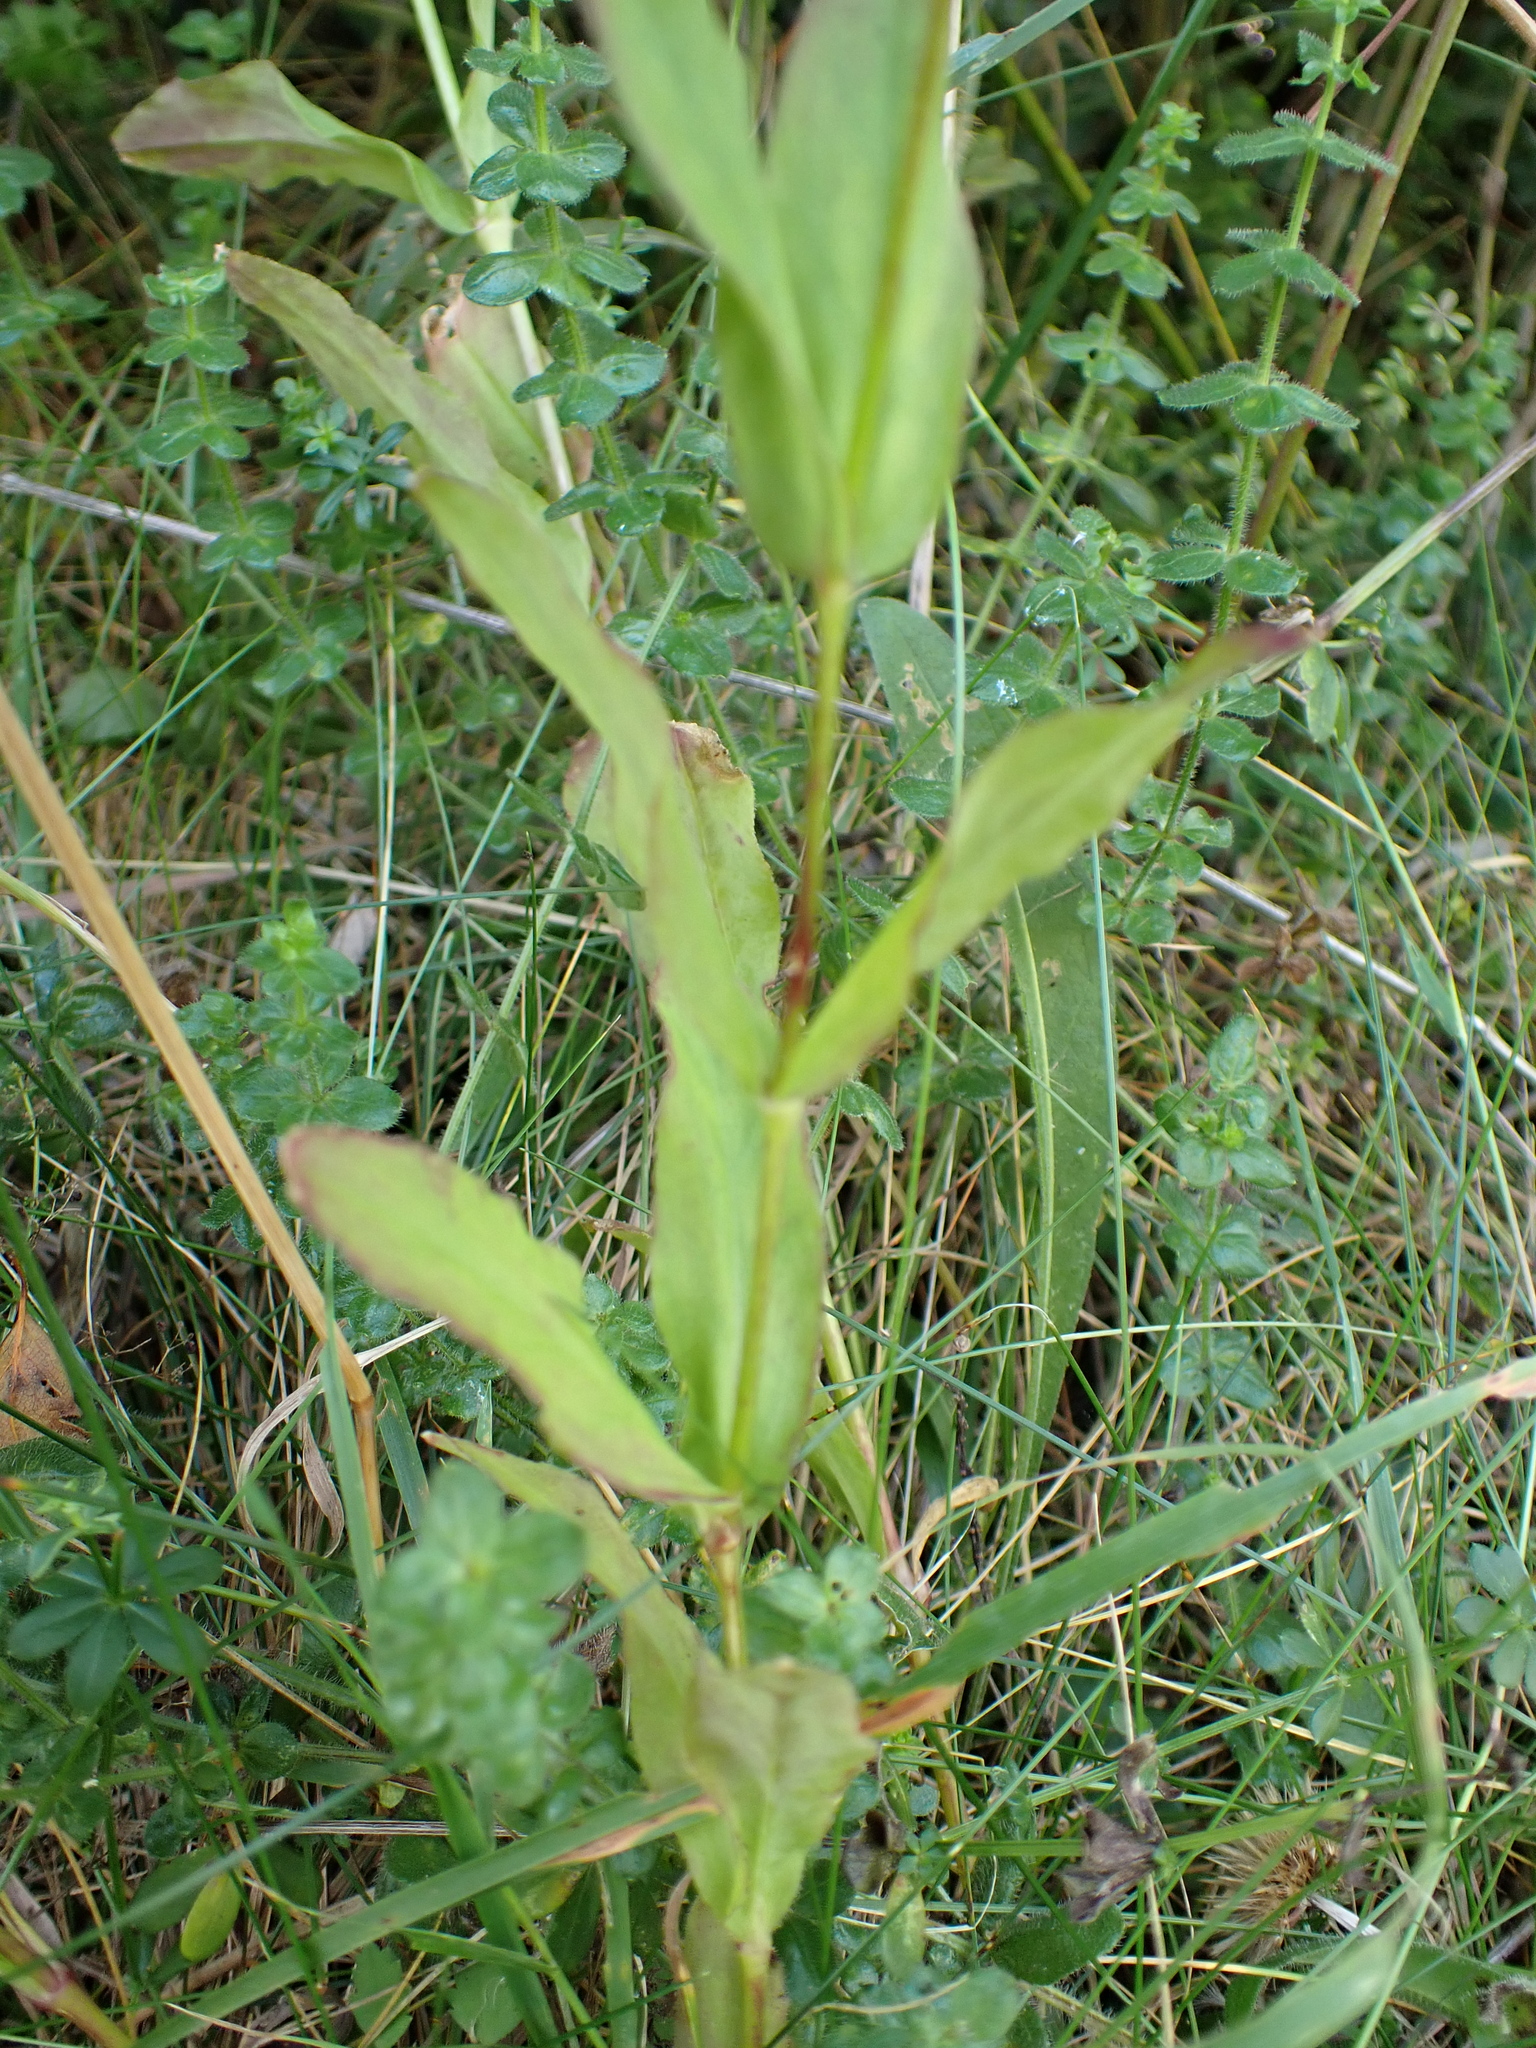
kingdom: Plantae
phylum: Tracheophyta
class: Magnoliopsida
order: Caryophyllales
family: Caryophyllaceae
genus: Silene
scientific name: Silene vulgaris
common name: Bladder campion
